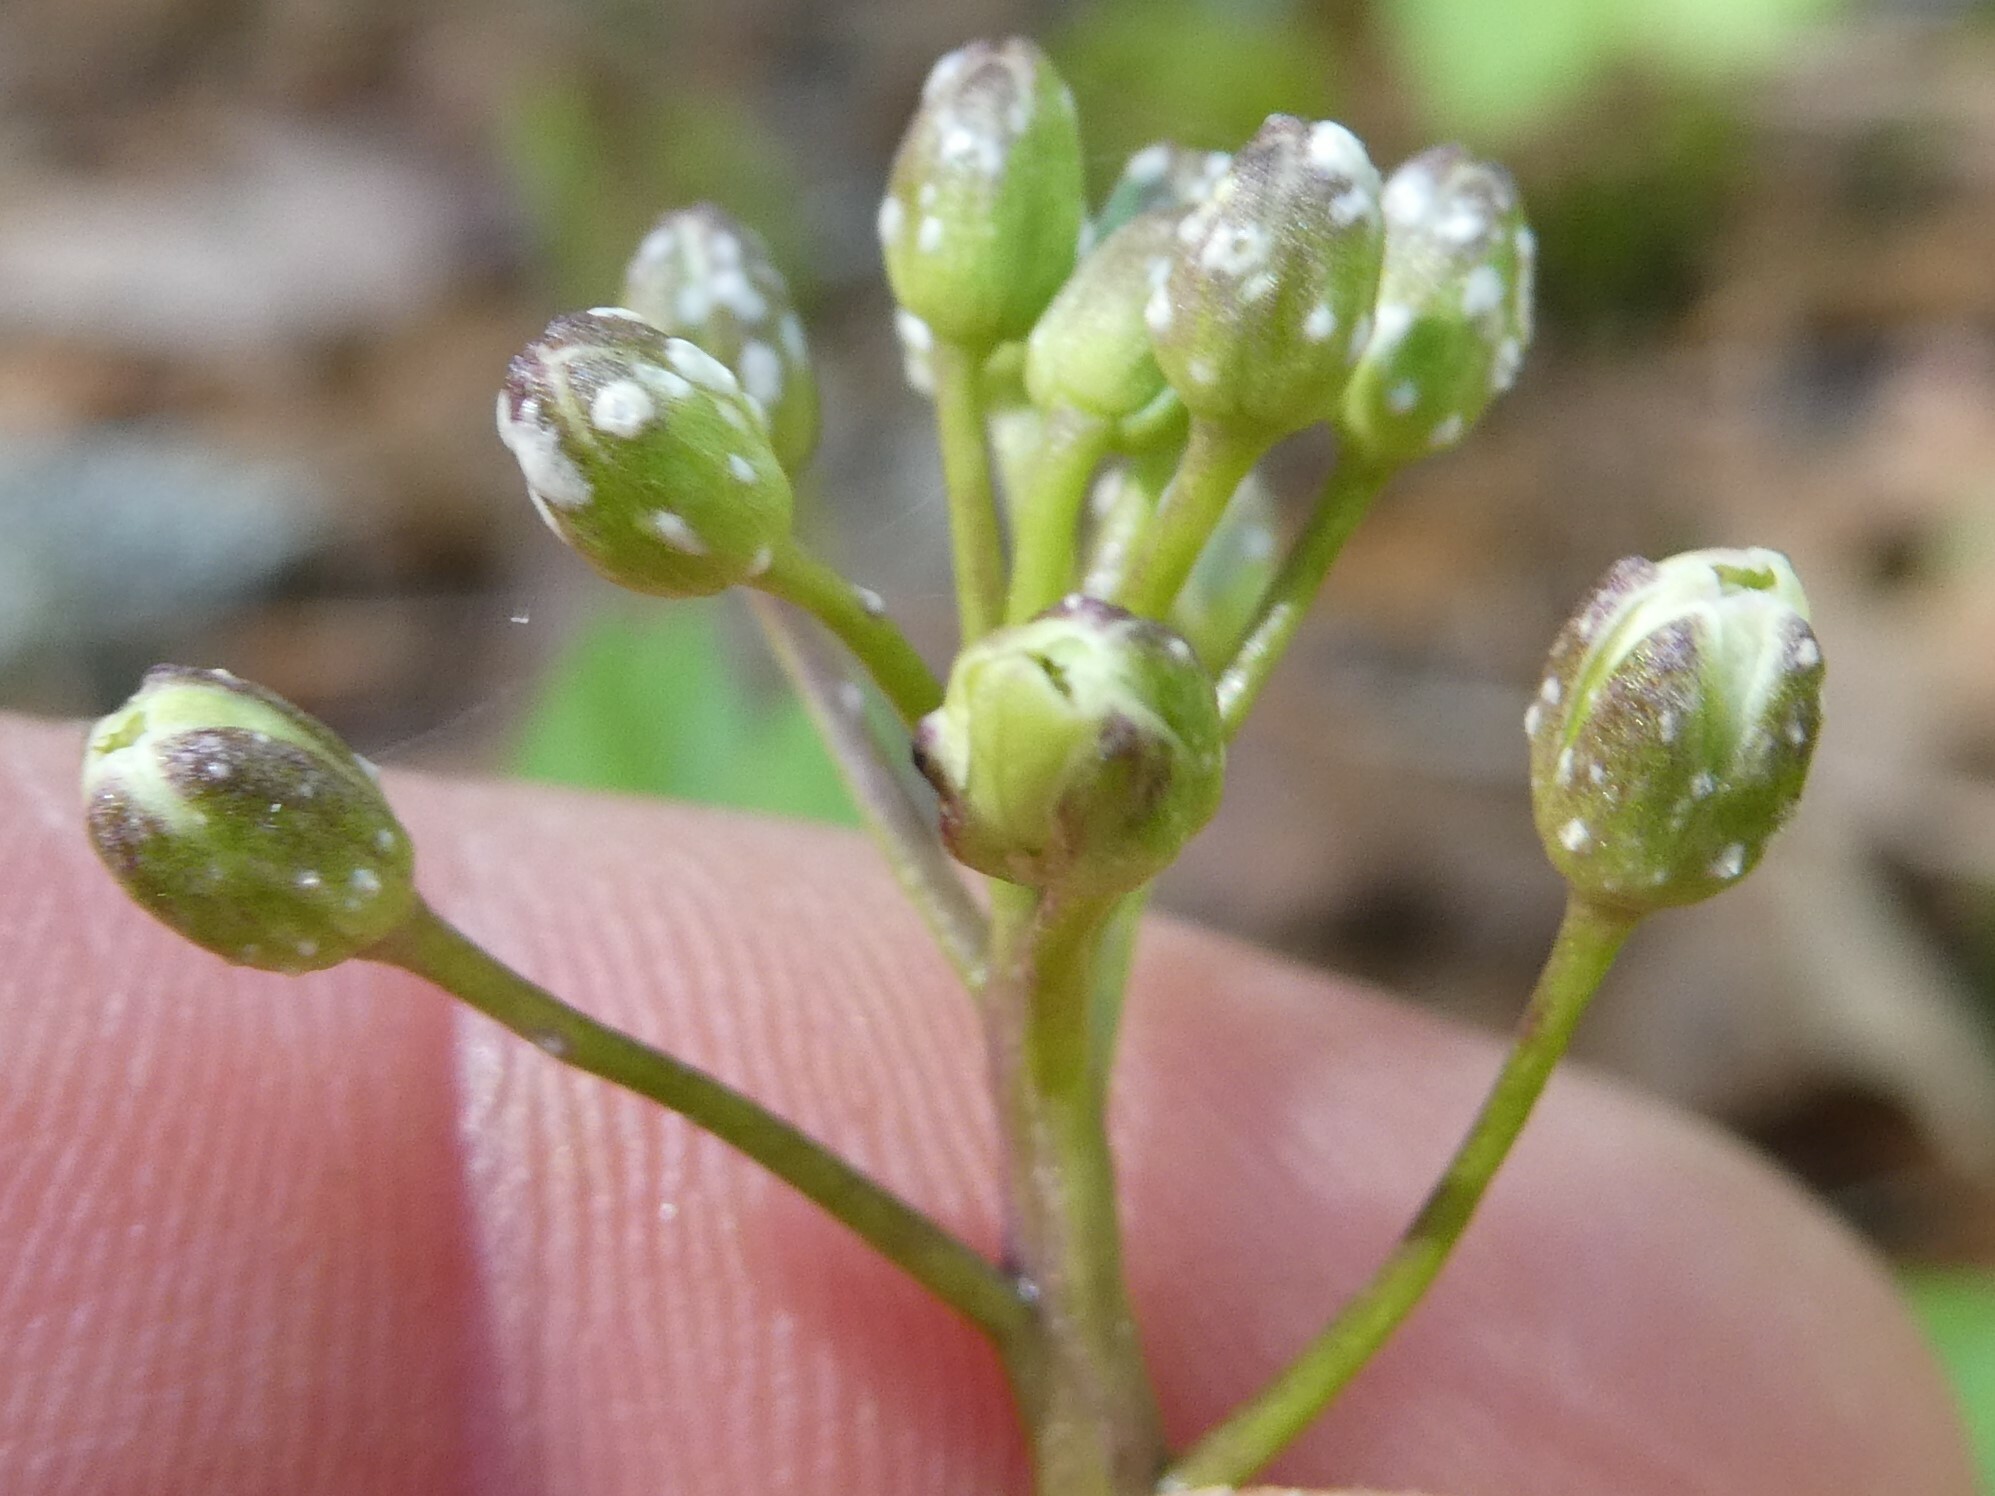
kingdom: Chromista
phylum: Oomycota
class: Peronosporea
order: Albuginales
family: Albuginaceae
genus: Albugo
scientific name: Albugo hesleri
